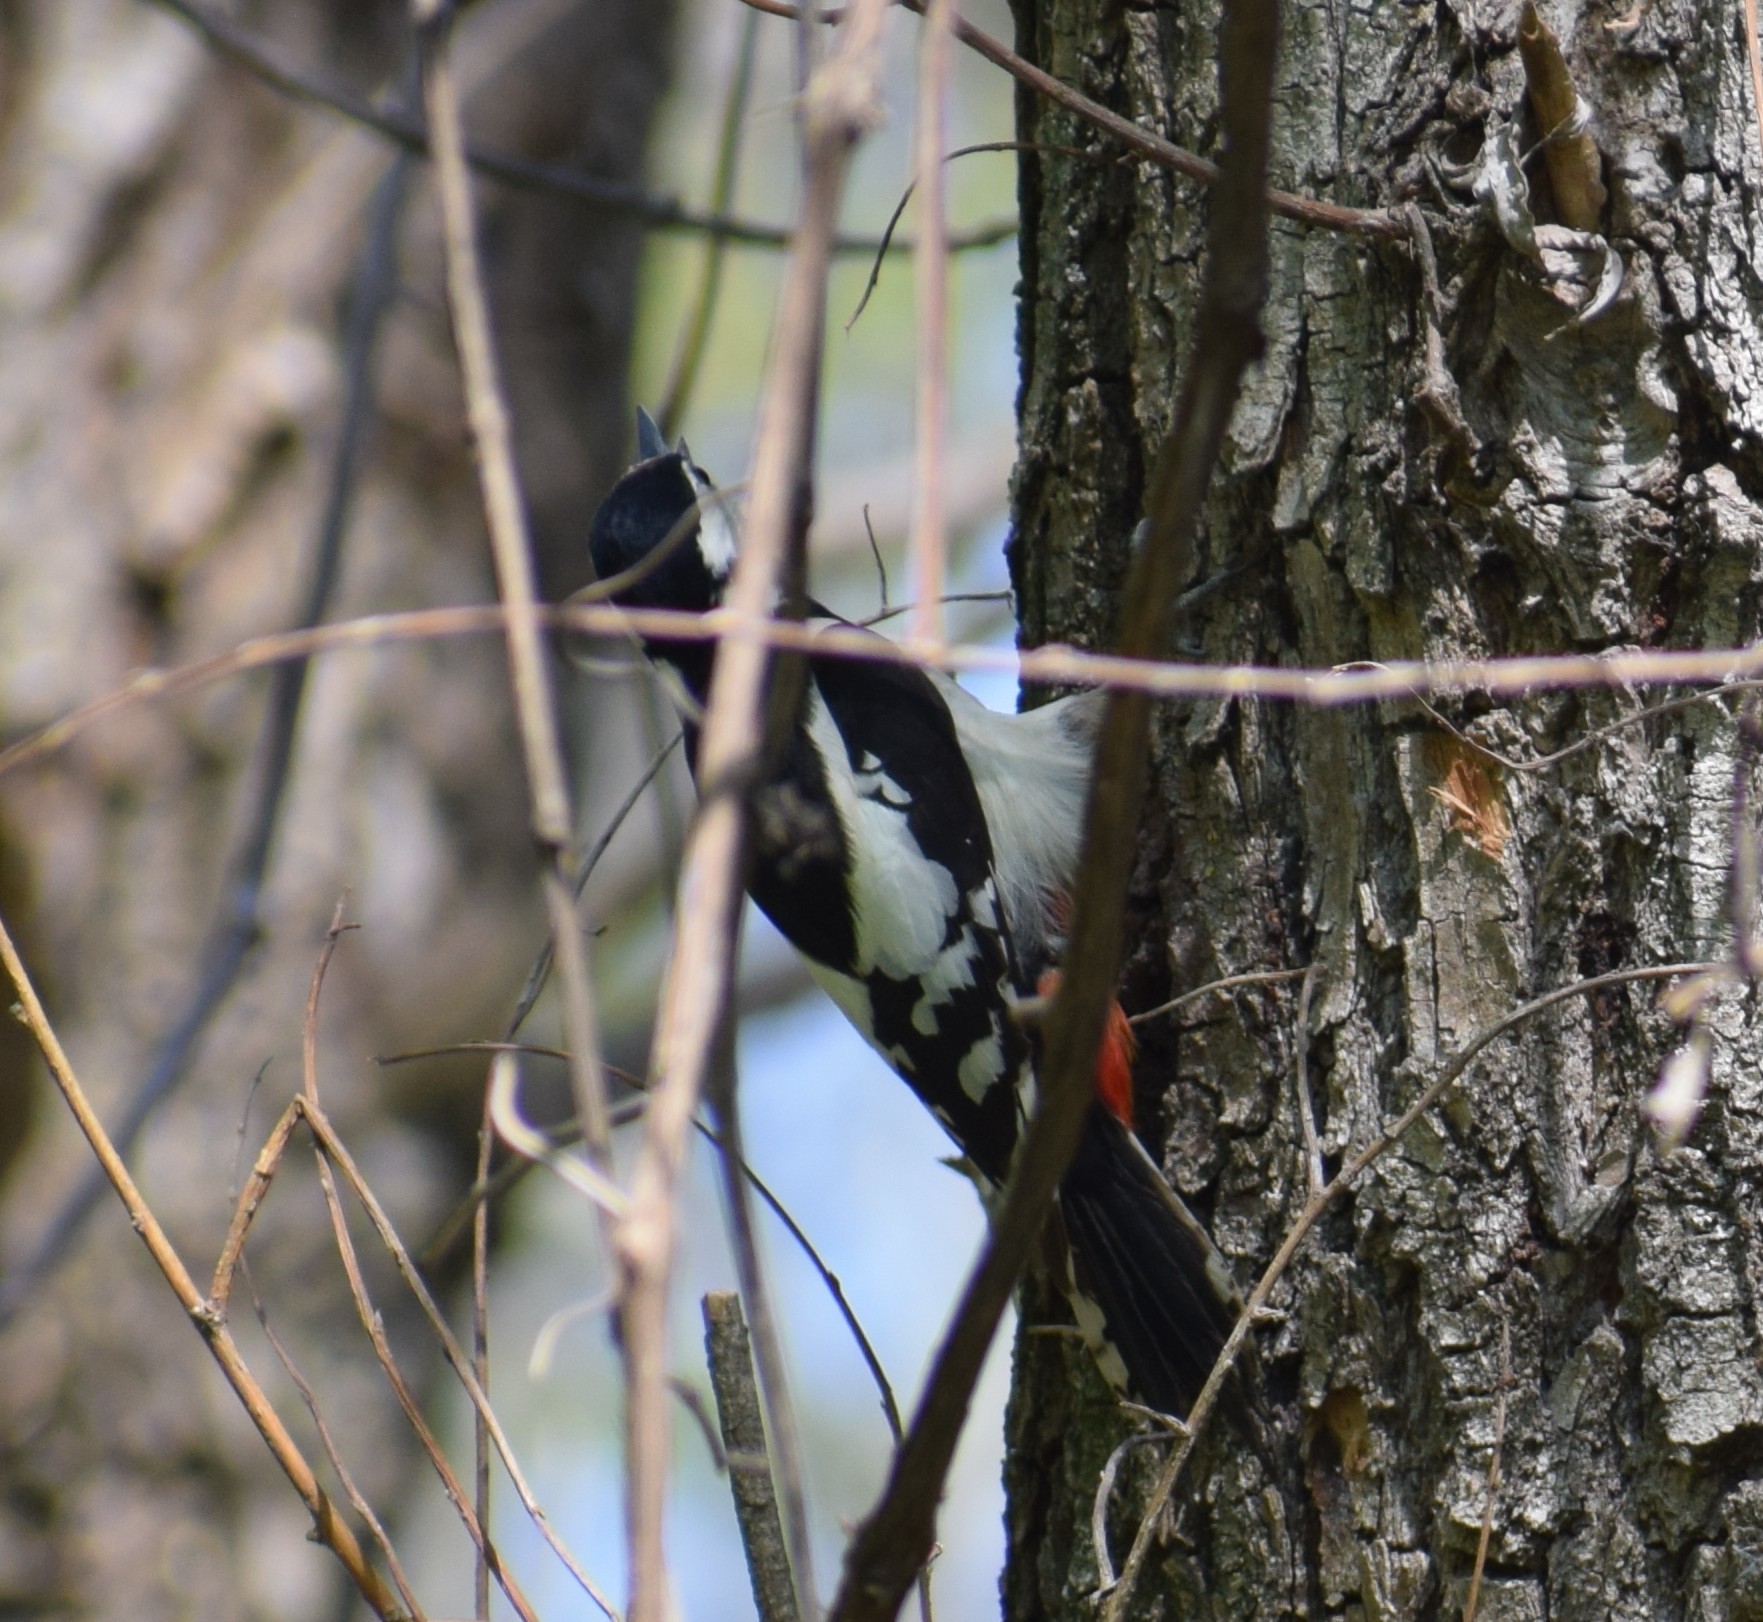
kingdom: Animalia
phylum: Chordata
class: Aves
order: Piciformes
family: Picidae
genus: Dendrocopos
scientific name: Dendrocopos major
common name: Great spotted woodpecker
